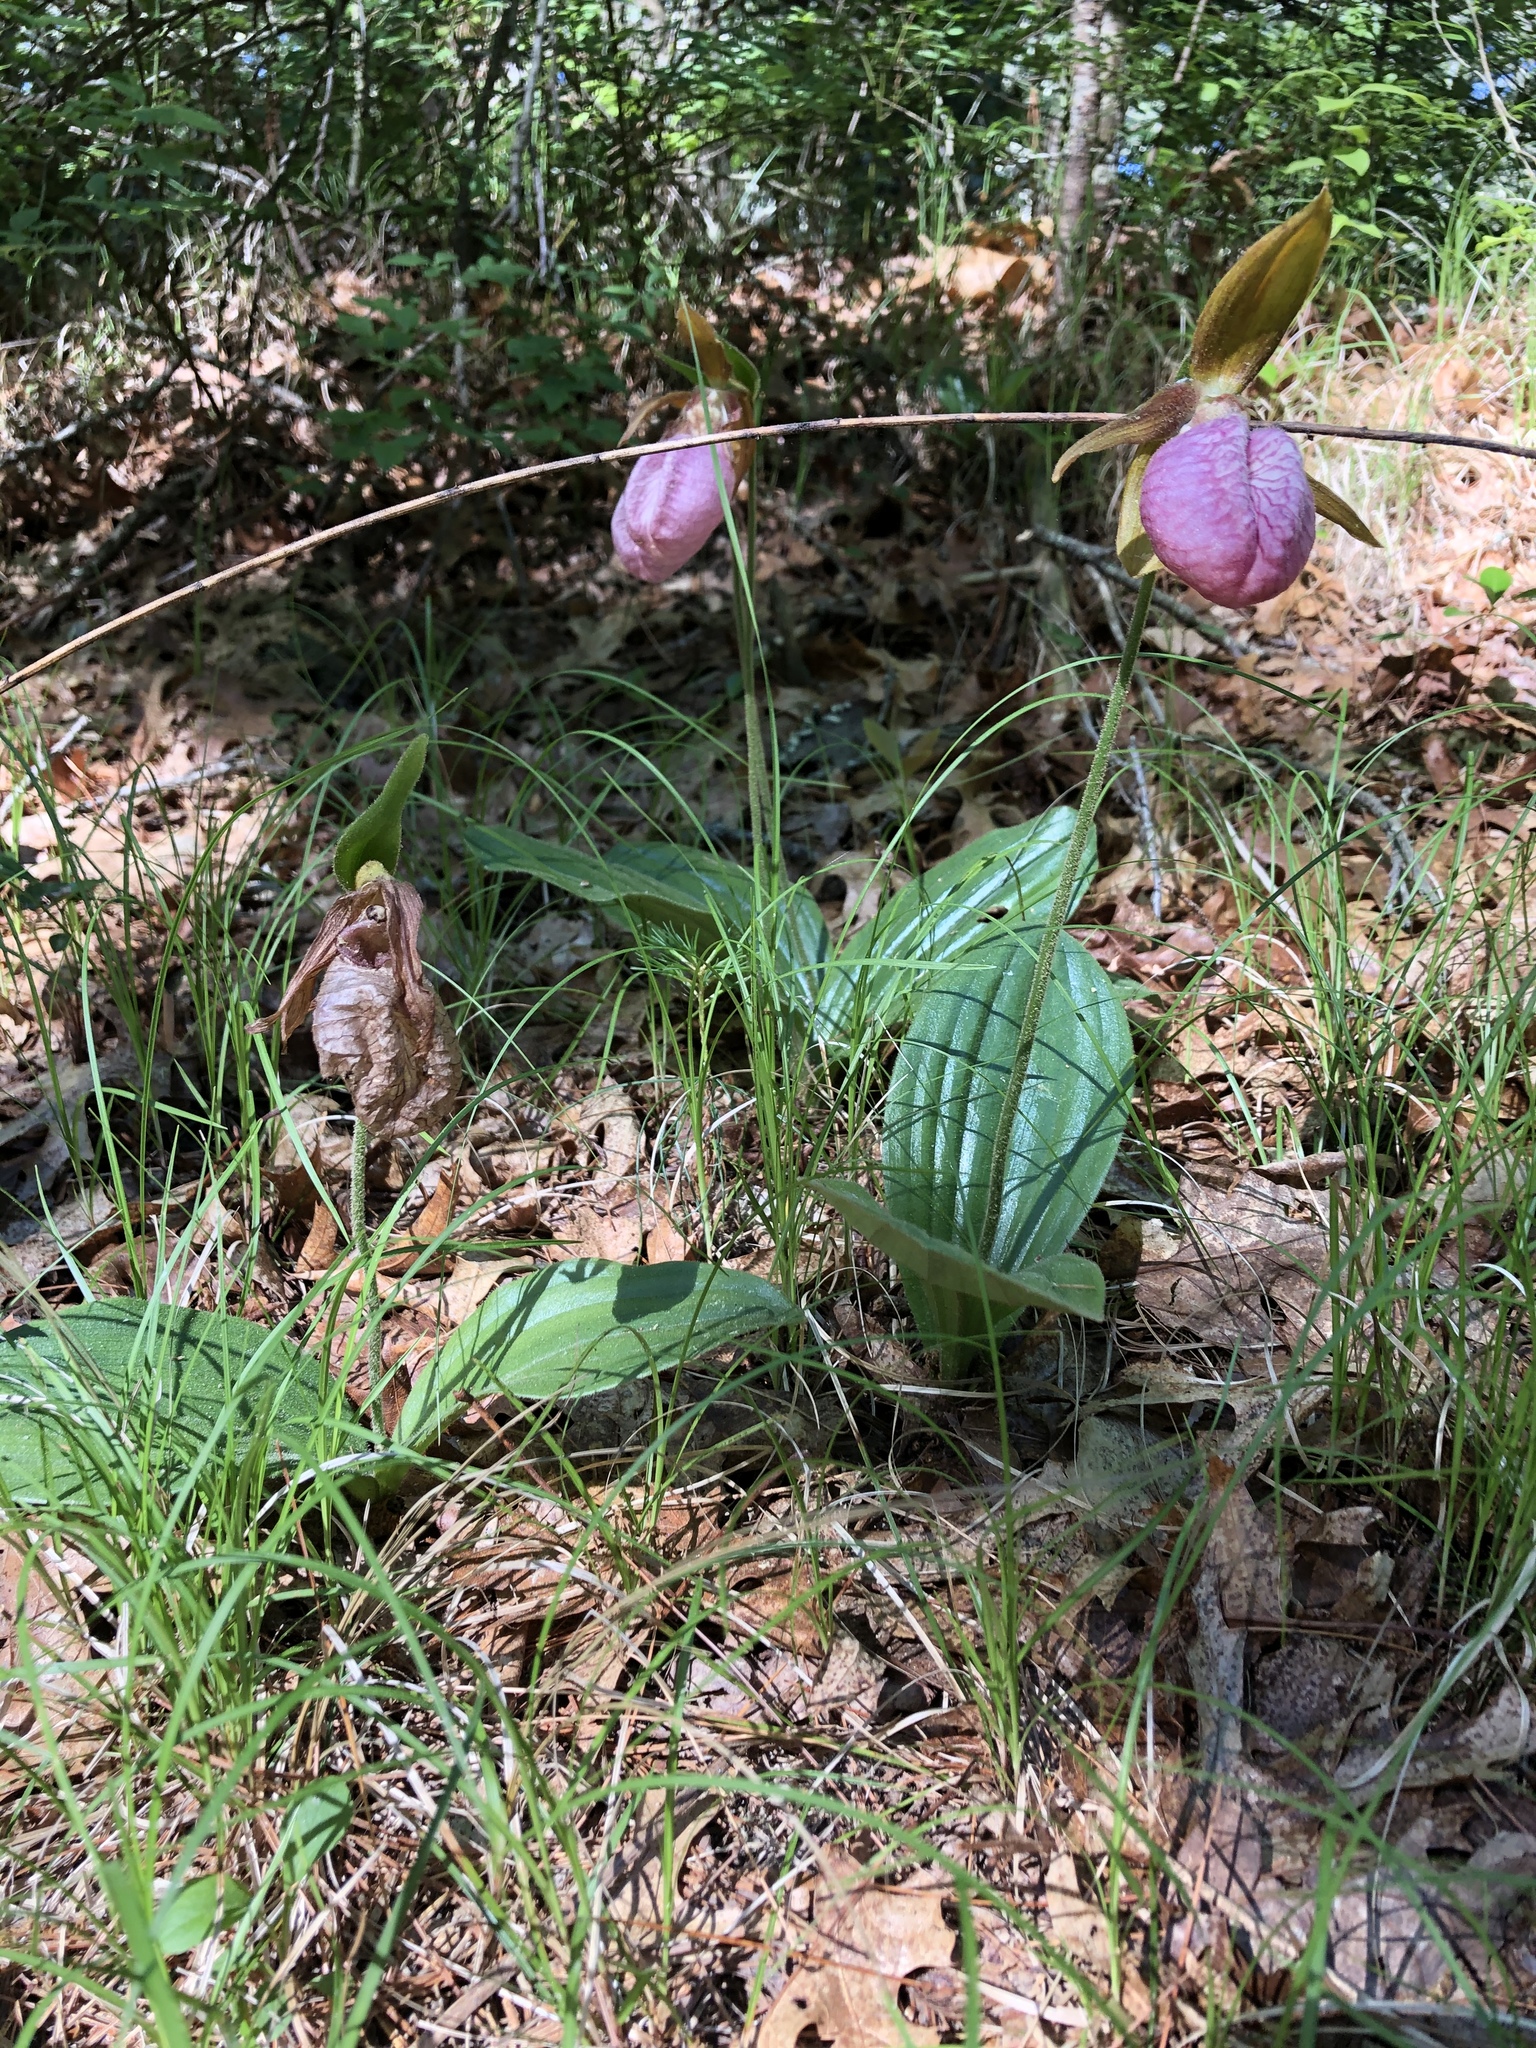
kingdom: Plantae
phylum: Tracheophyta
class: Liliopsida
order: Asparagales
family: Orchidaceae
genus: Cypripedium
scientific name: Cypripedium acaule
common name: Pink lady's-slipper
